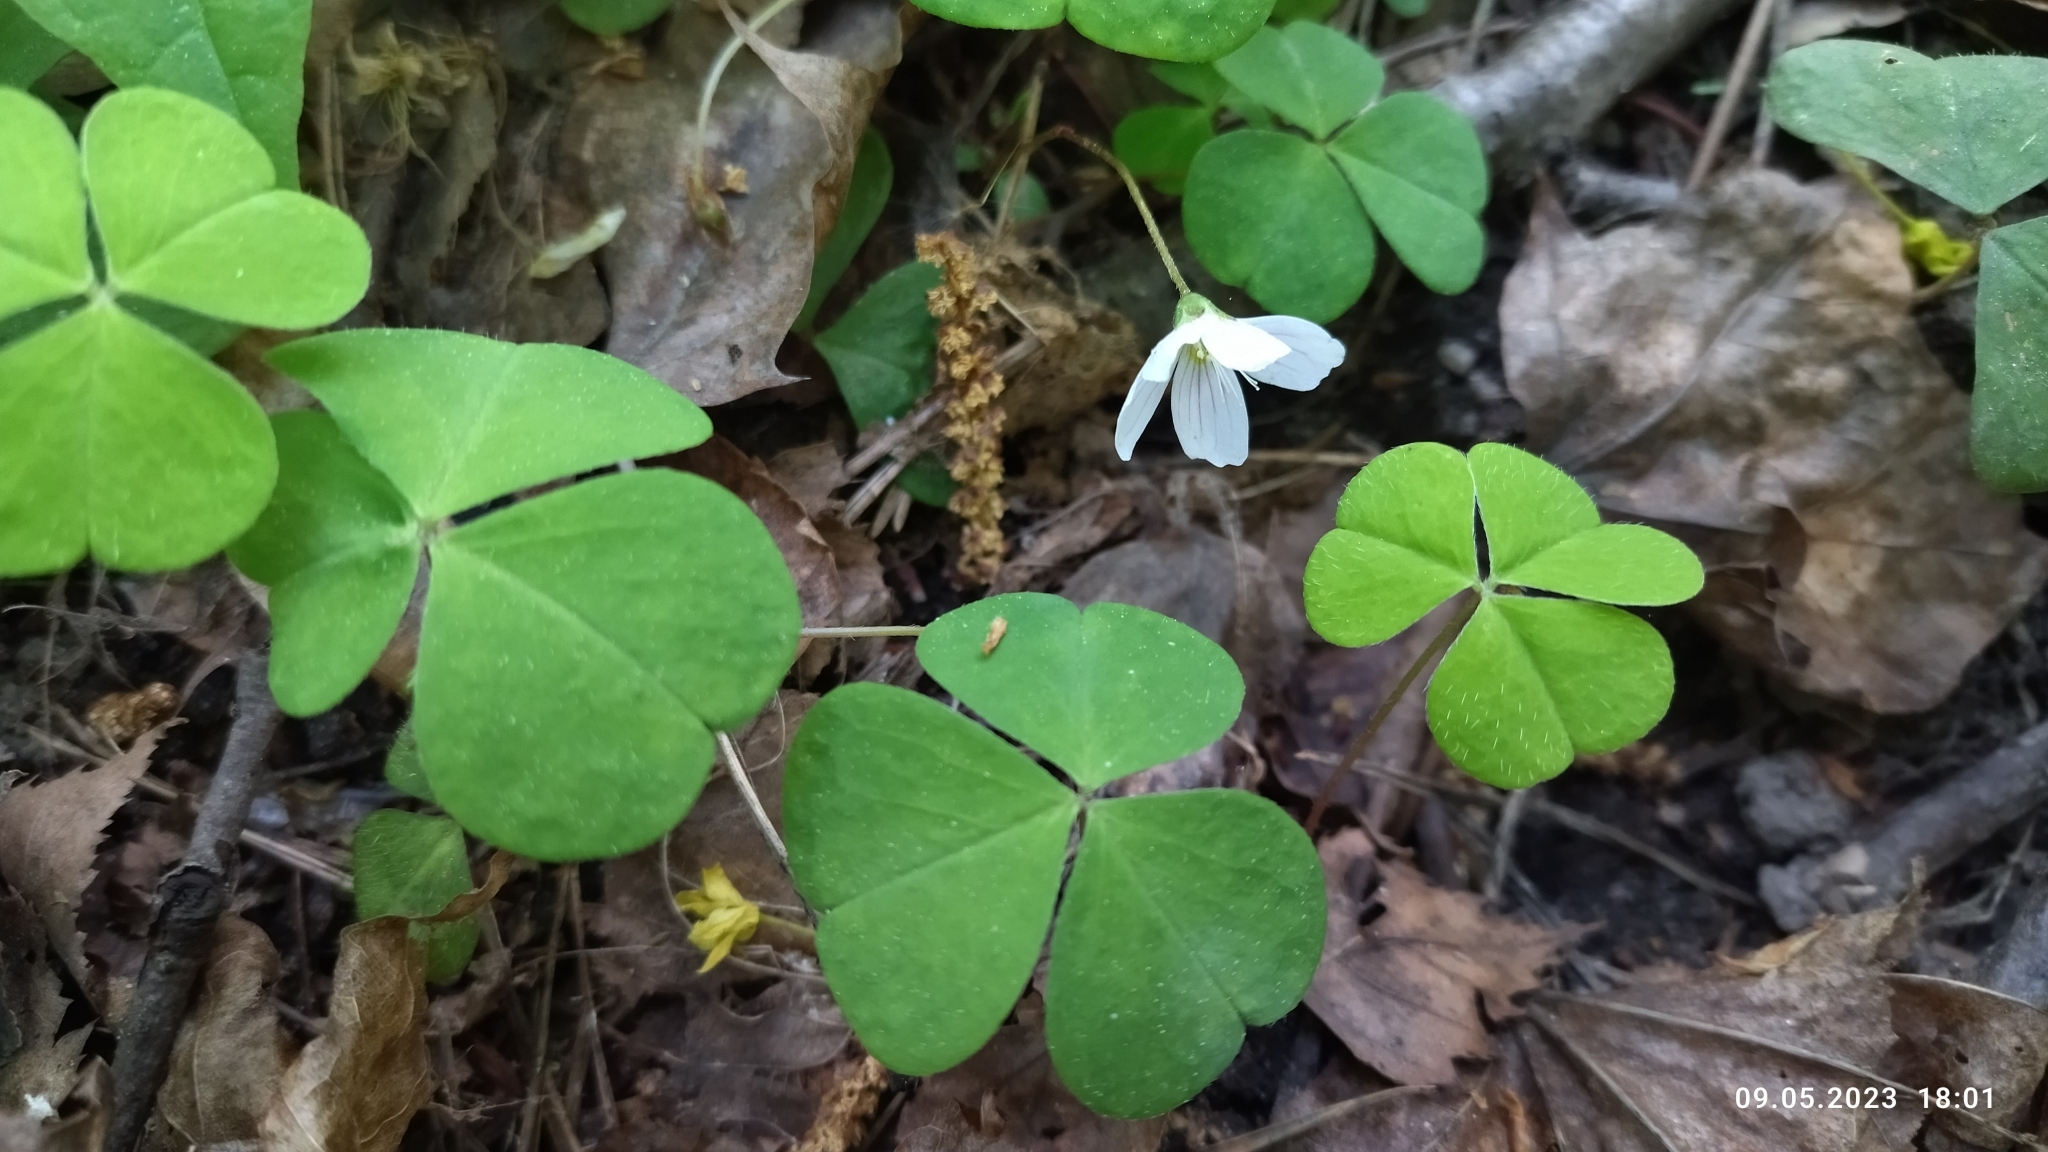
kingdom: Plantae
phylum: Tracheophyta
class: Magnoliopsida
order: Oxalidales
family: Oxalidaceae
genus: Oxalis
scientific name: Oxalis acetosella
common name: Wood-sorrel
